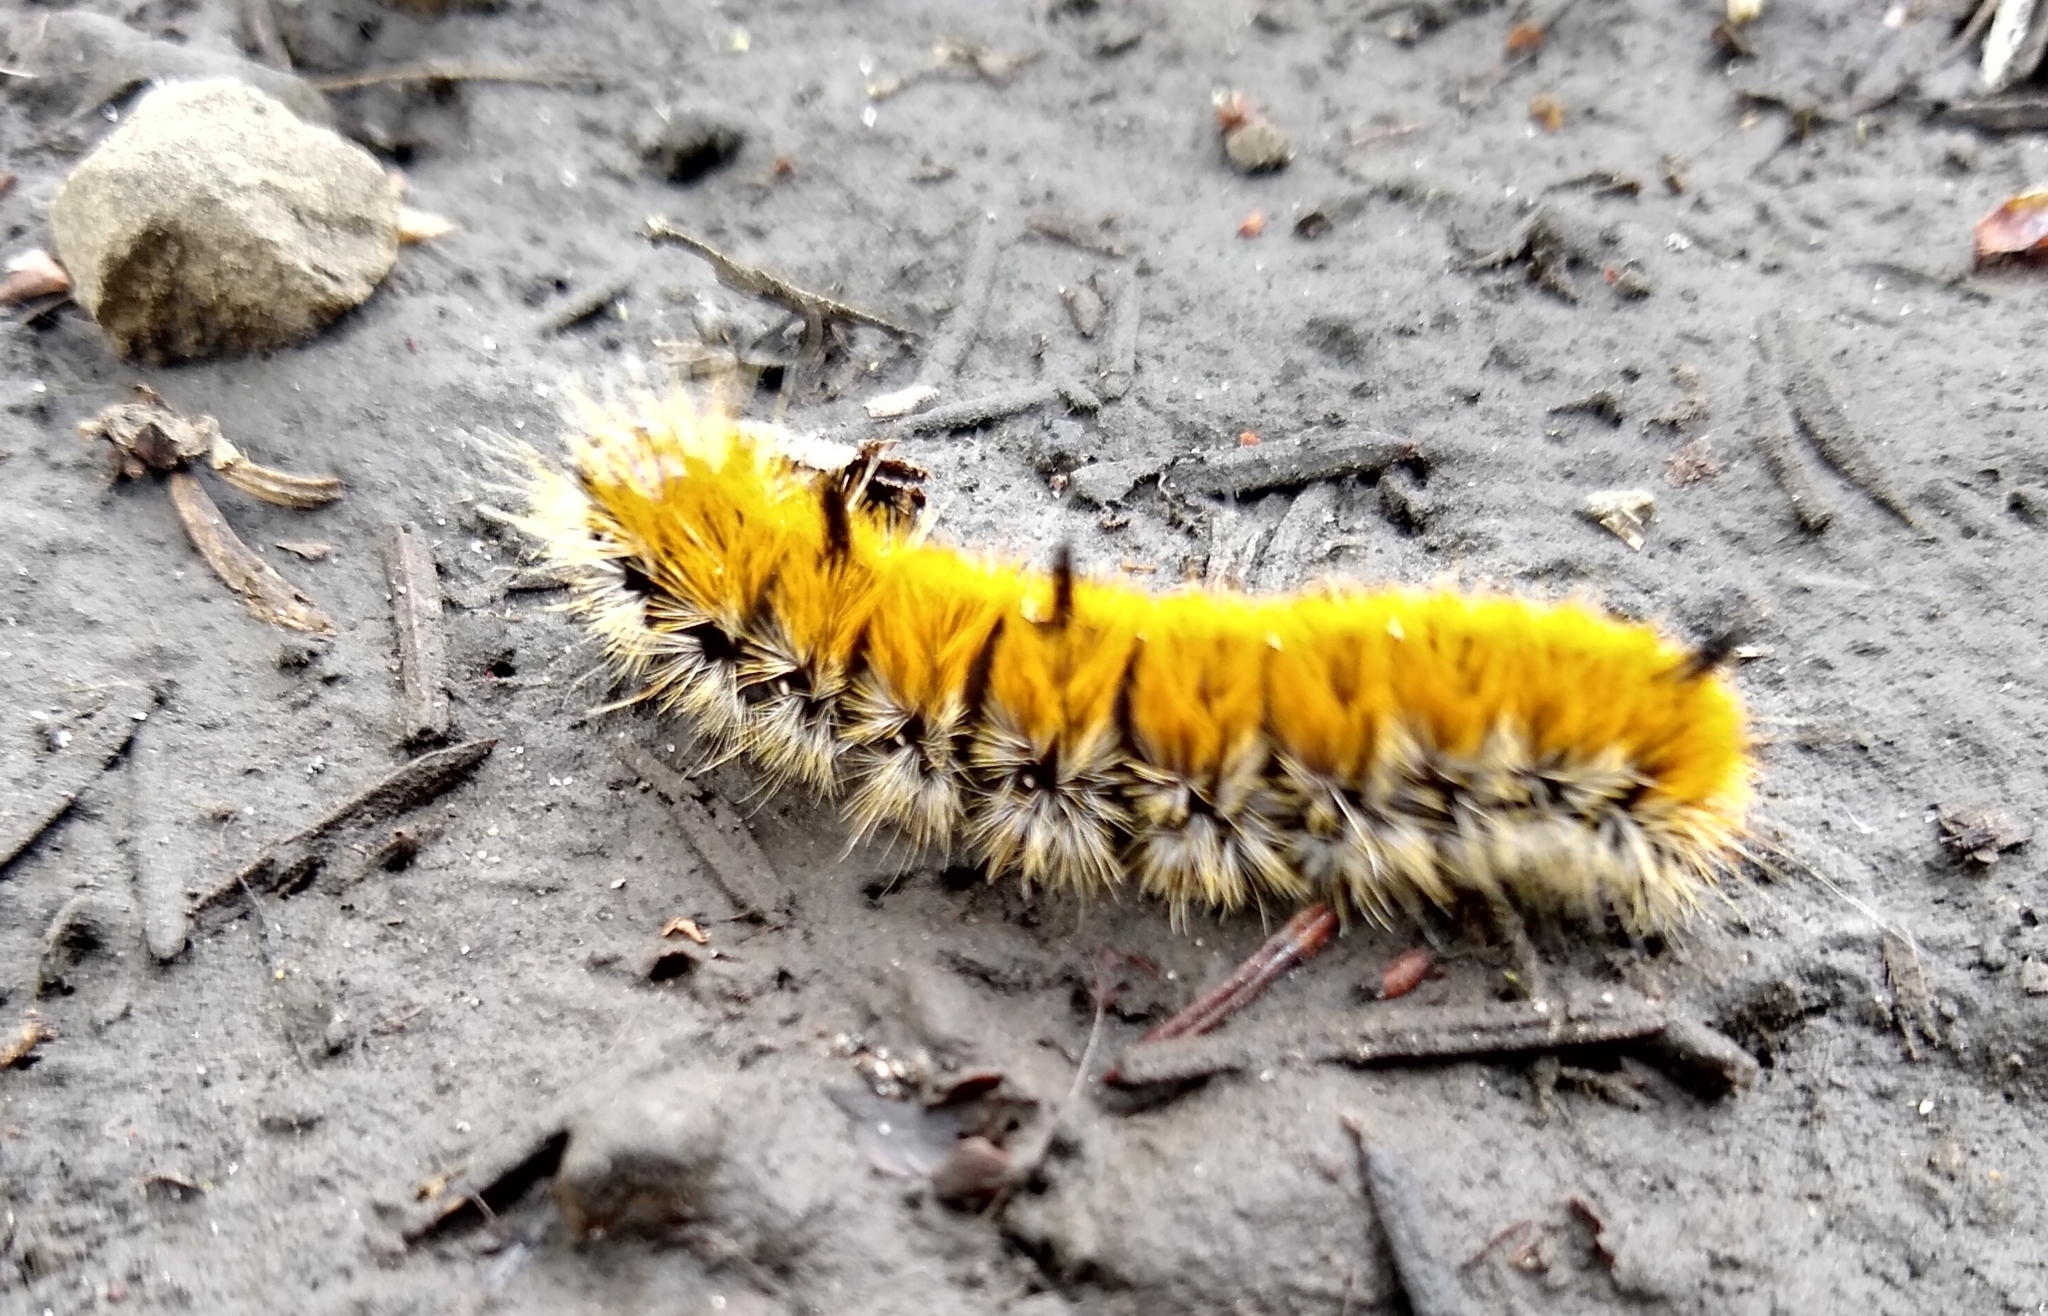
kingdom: Animalia
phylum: Arthropoda
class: Insecta
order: Lepidoptera
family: Noctuidae
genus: Acronicta
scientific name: Acronicta insita
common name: Large gray dagger
